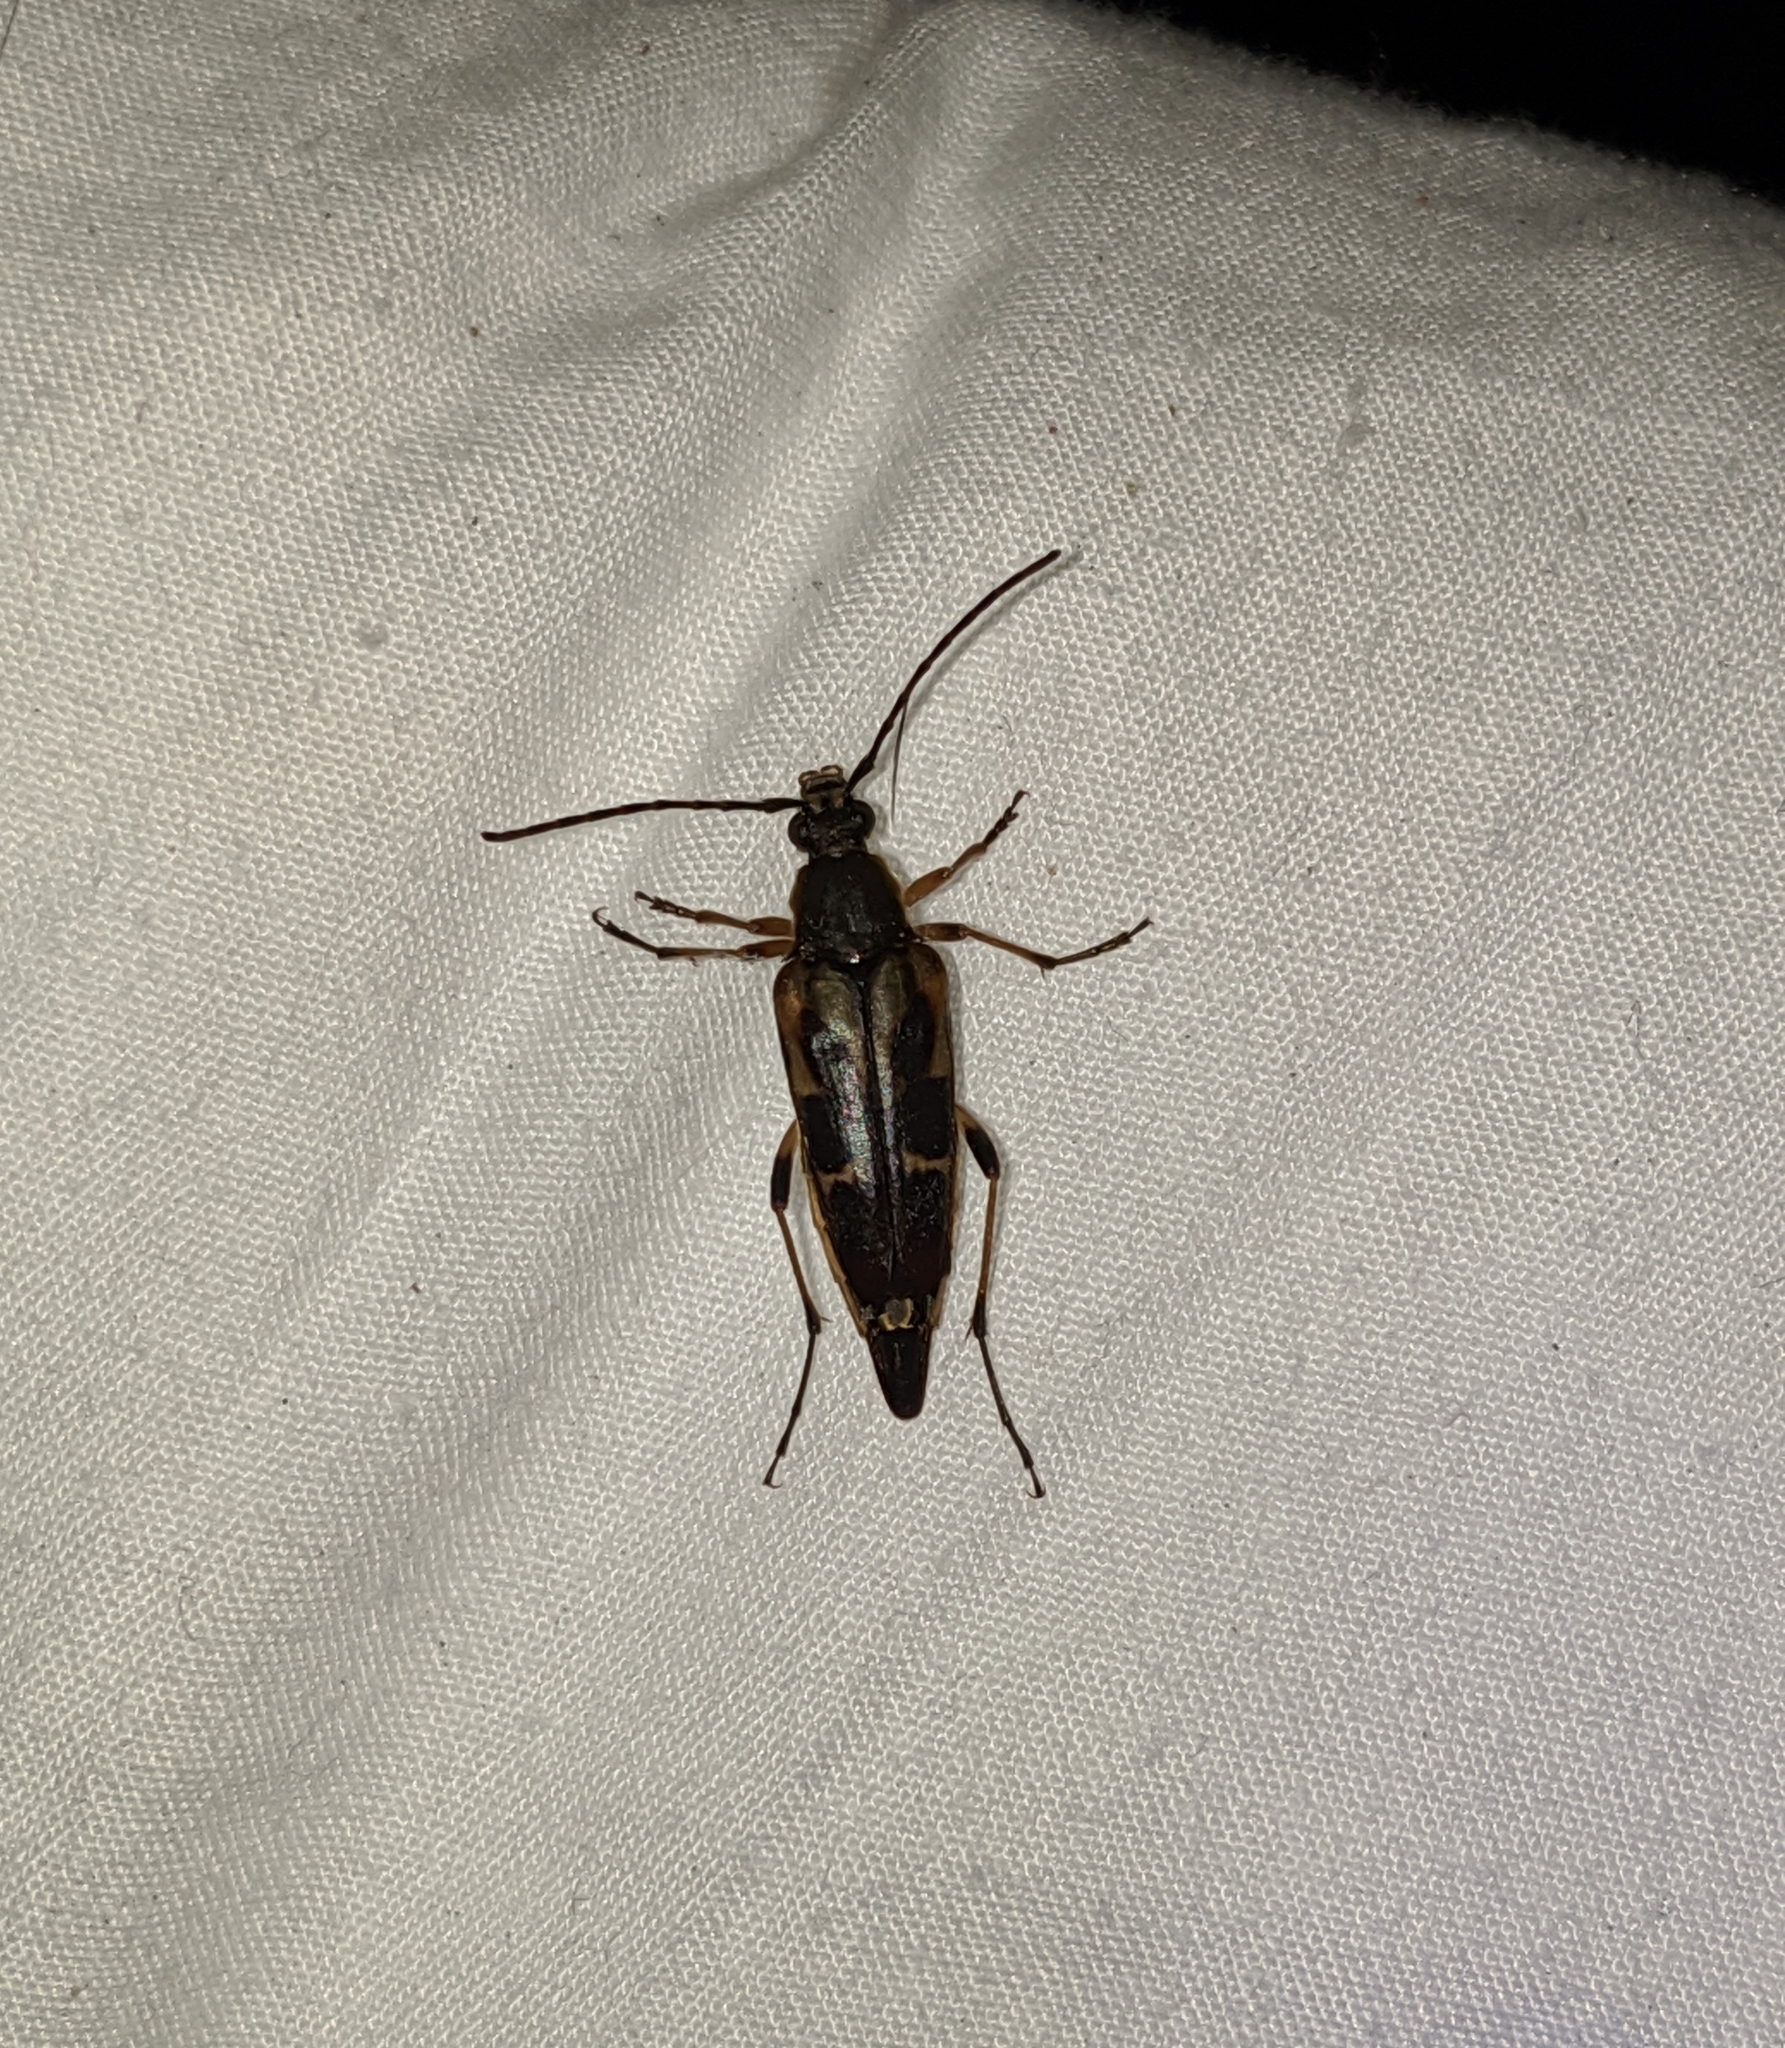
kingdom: Animalia
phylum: Arthropoda
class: Insecta
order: Coleoptera
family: Cerambycidae
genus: Etorofus
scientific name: Etorofus obliteratus
